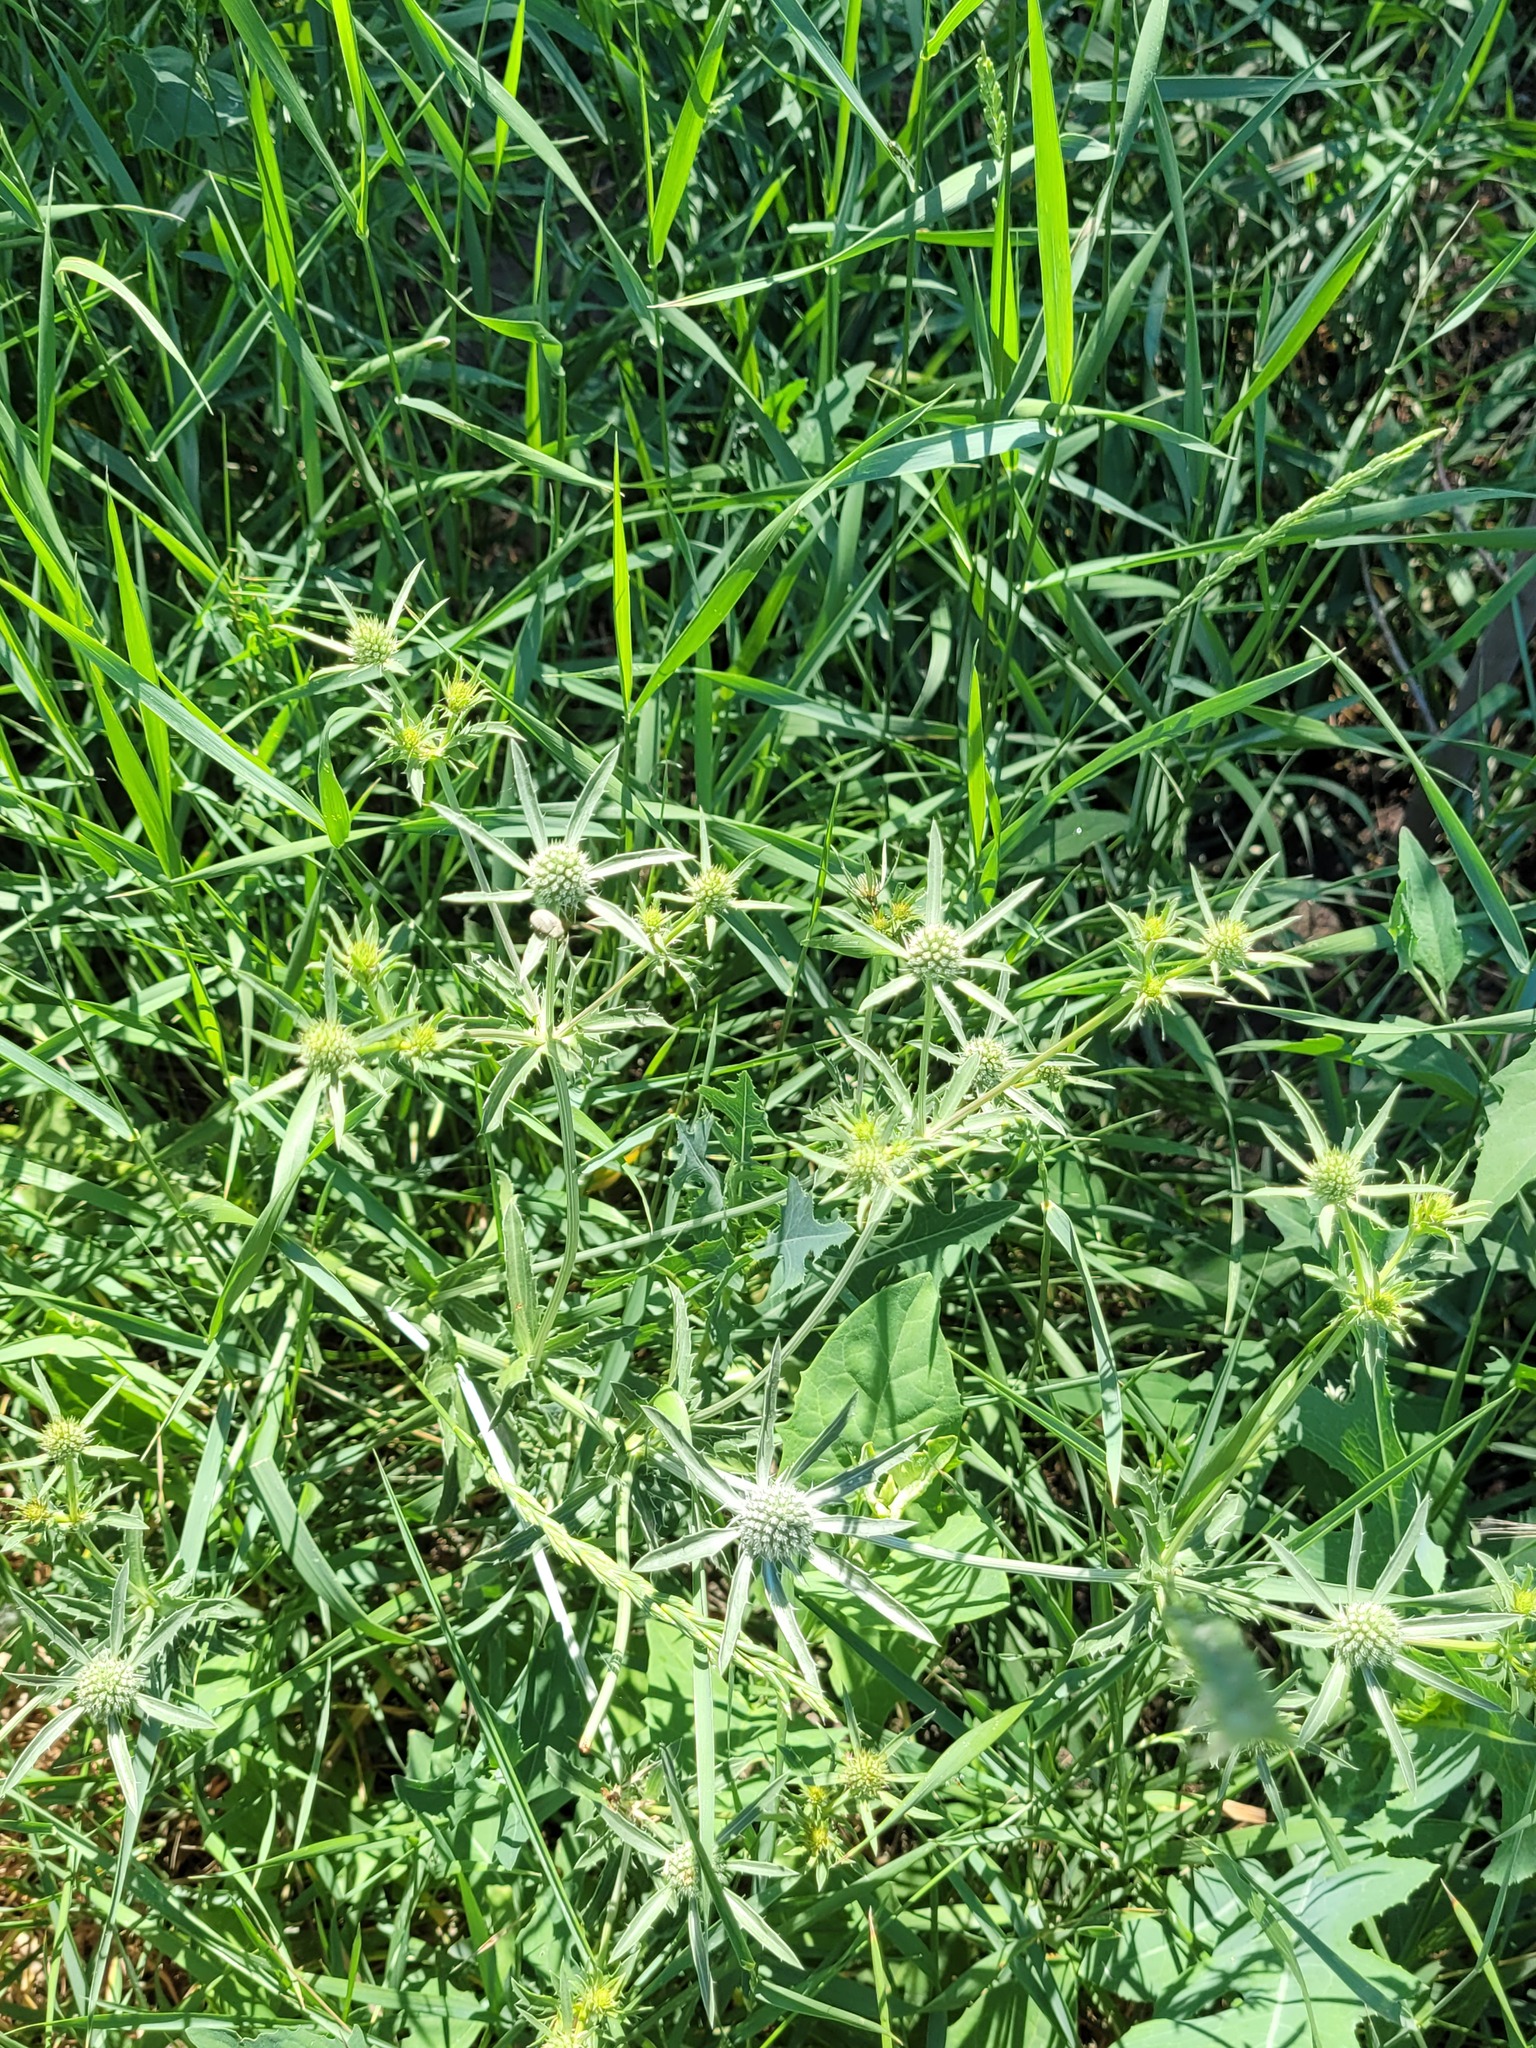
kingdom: Plantae
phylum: Tracheophyta
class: Magnoliopsida
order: Apiales
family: Apiaceae
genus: Eryngium
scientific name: Eryngium planum
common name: Blue eryngo
